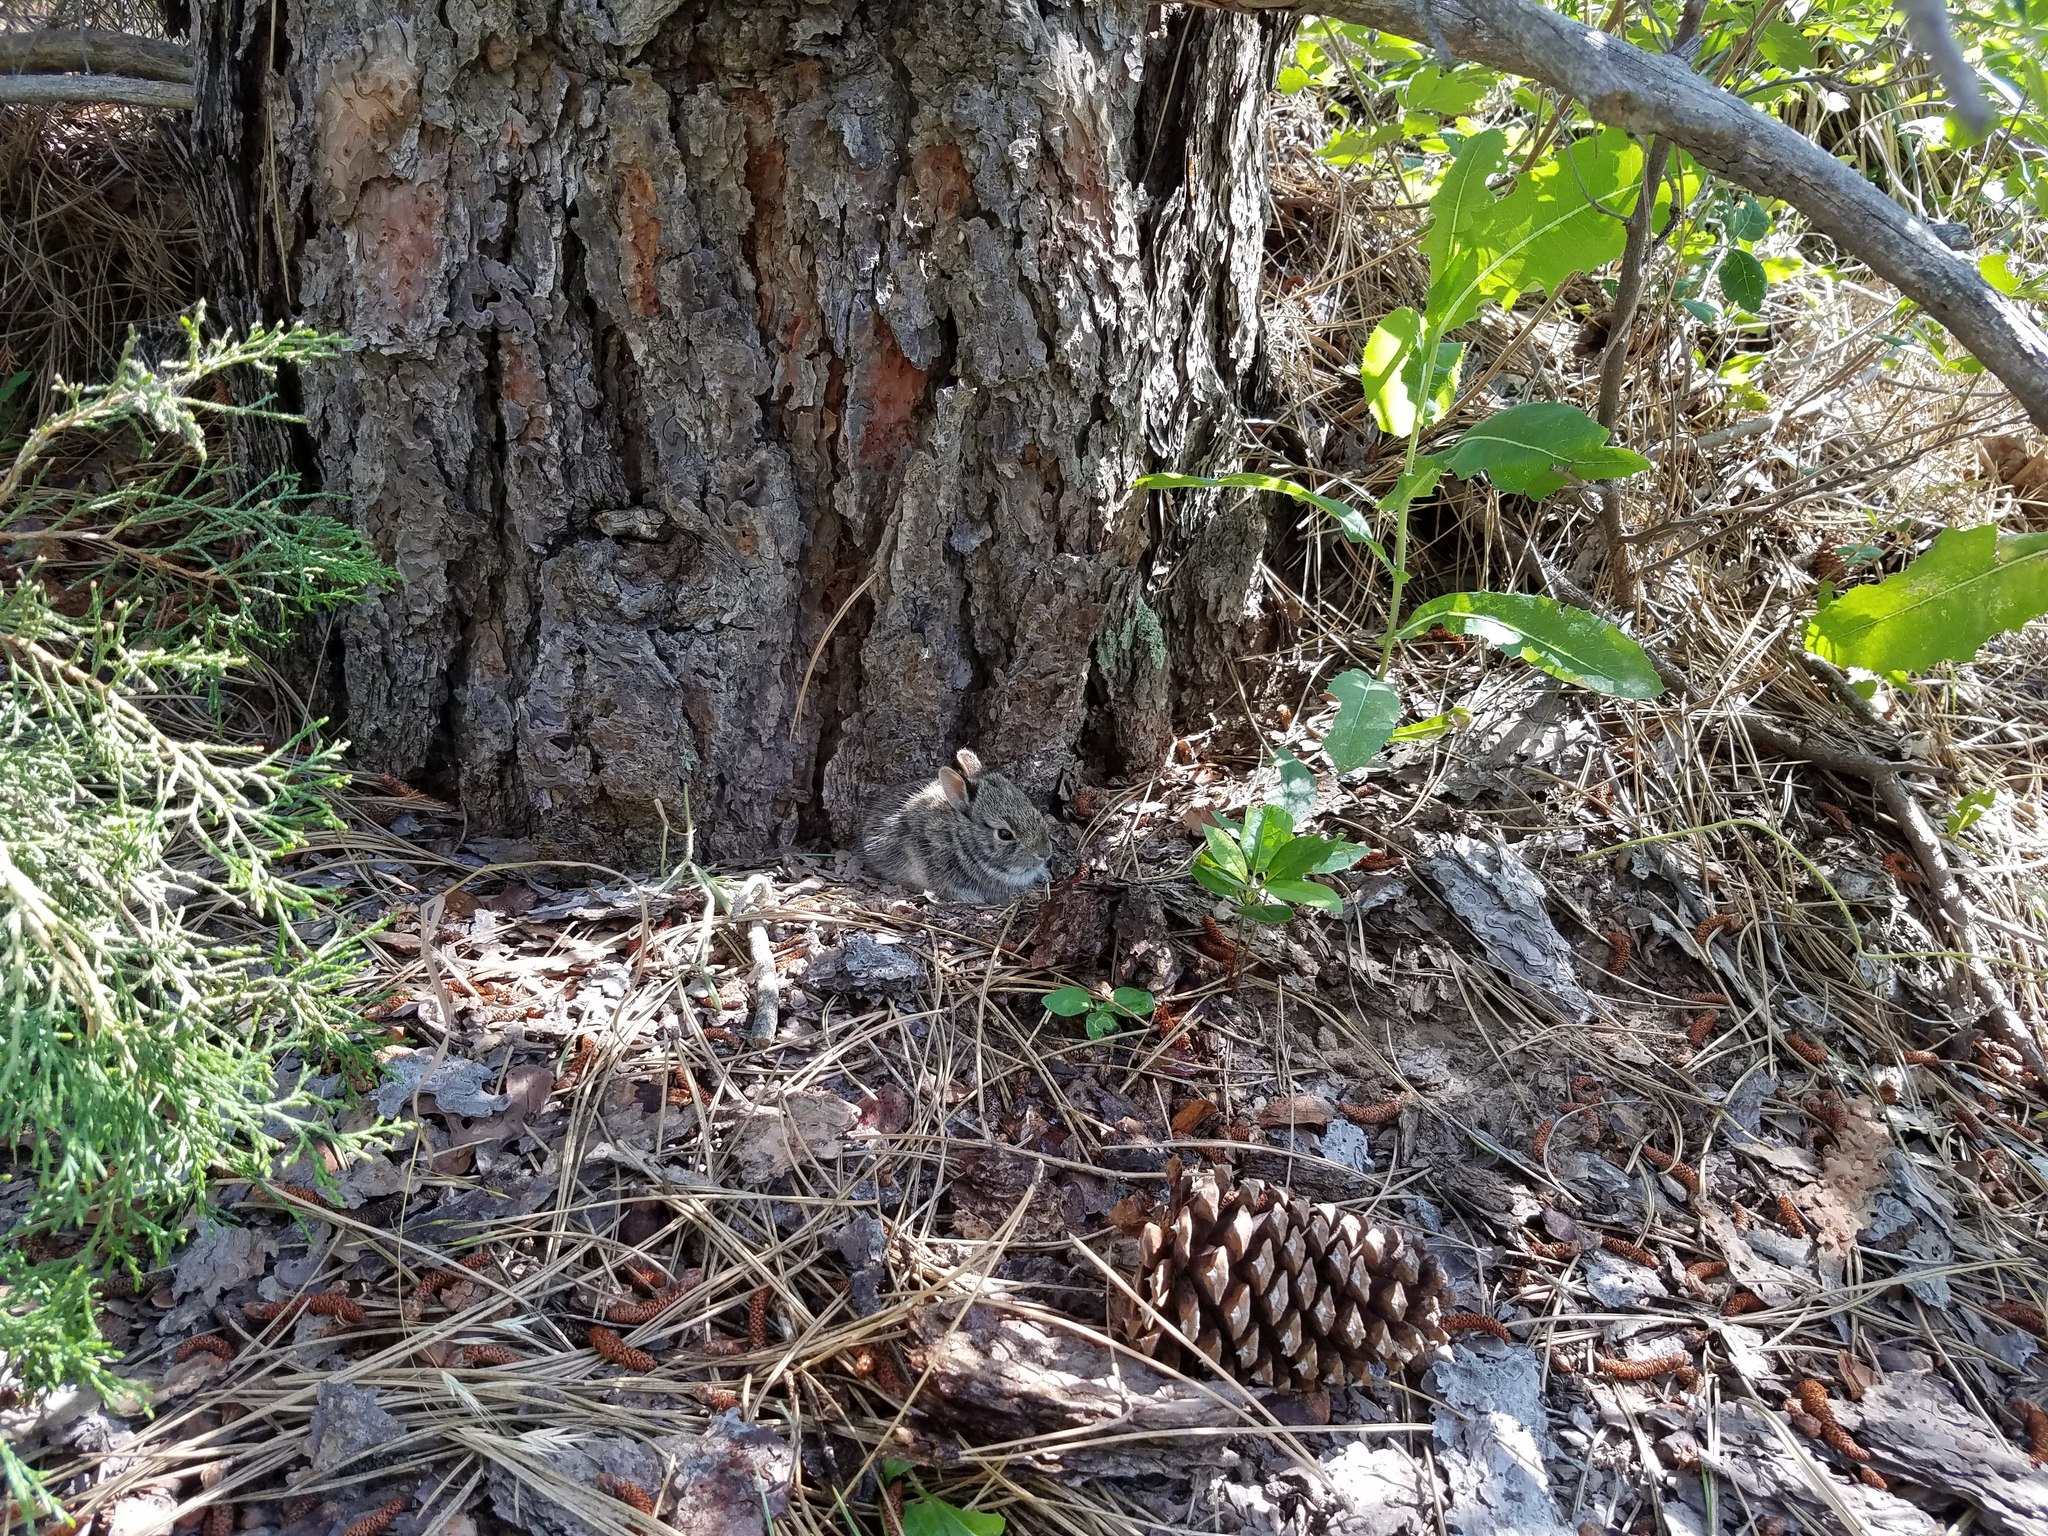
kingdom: Animalia
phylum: Chordata
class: Mammalia
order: Lagomorpha
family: Leporidae
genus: Sylvilagus
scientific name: Sylvilagus floridanus
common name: Eastern cottontail
